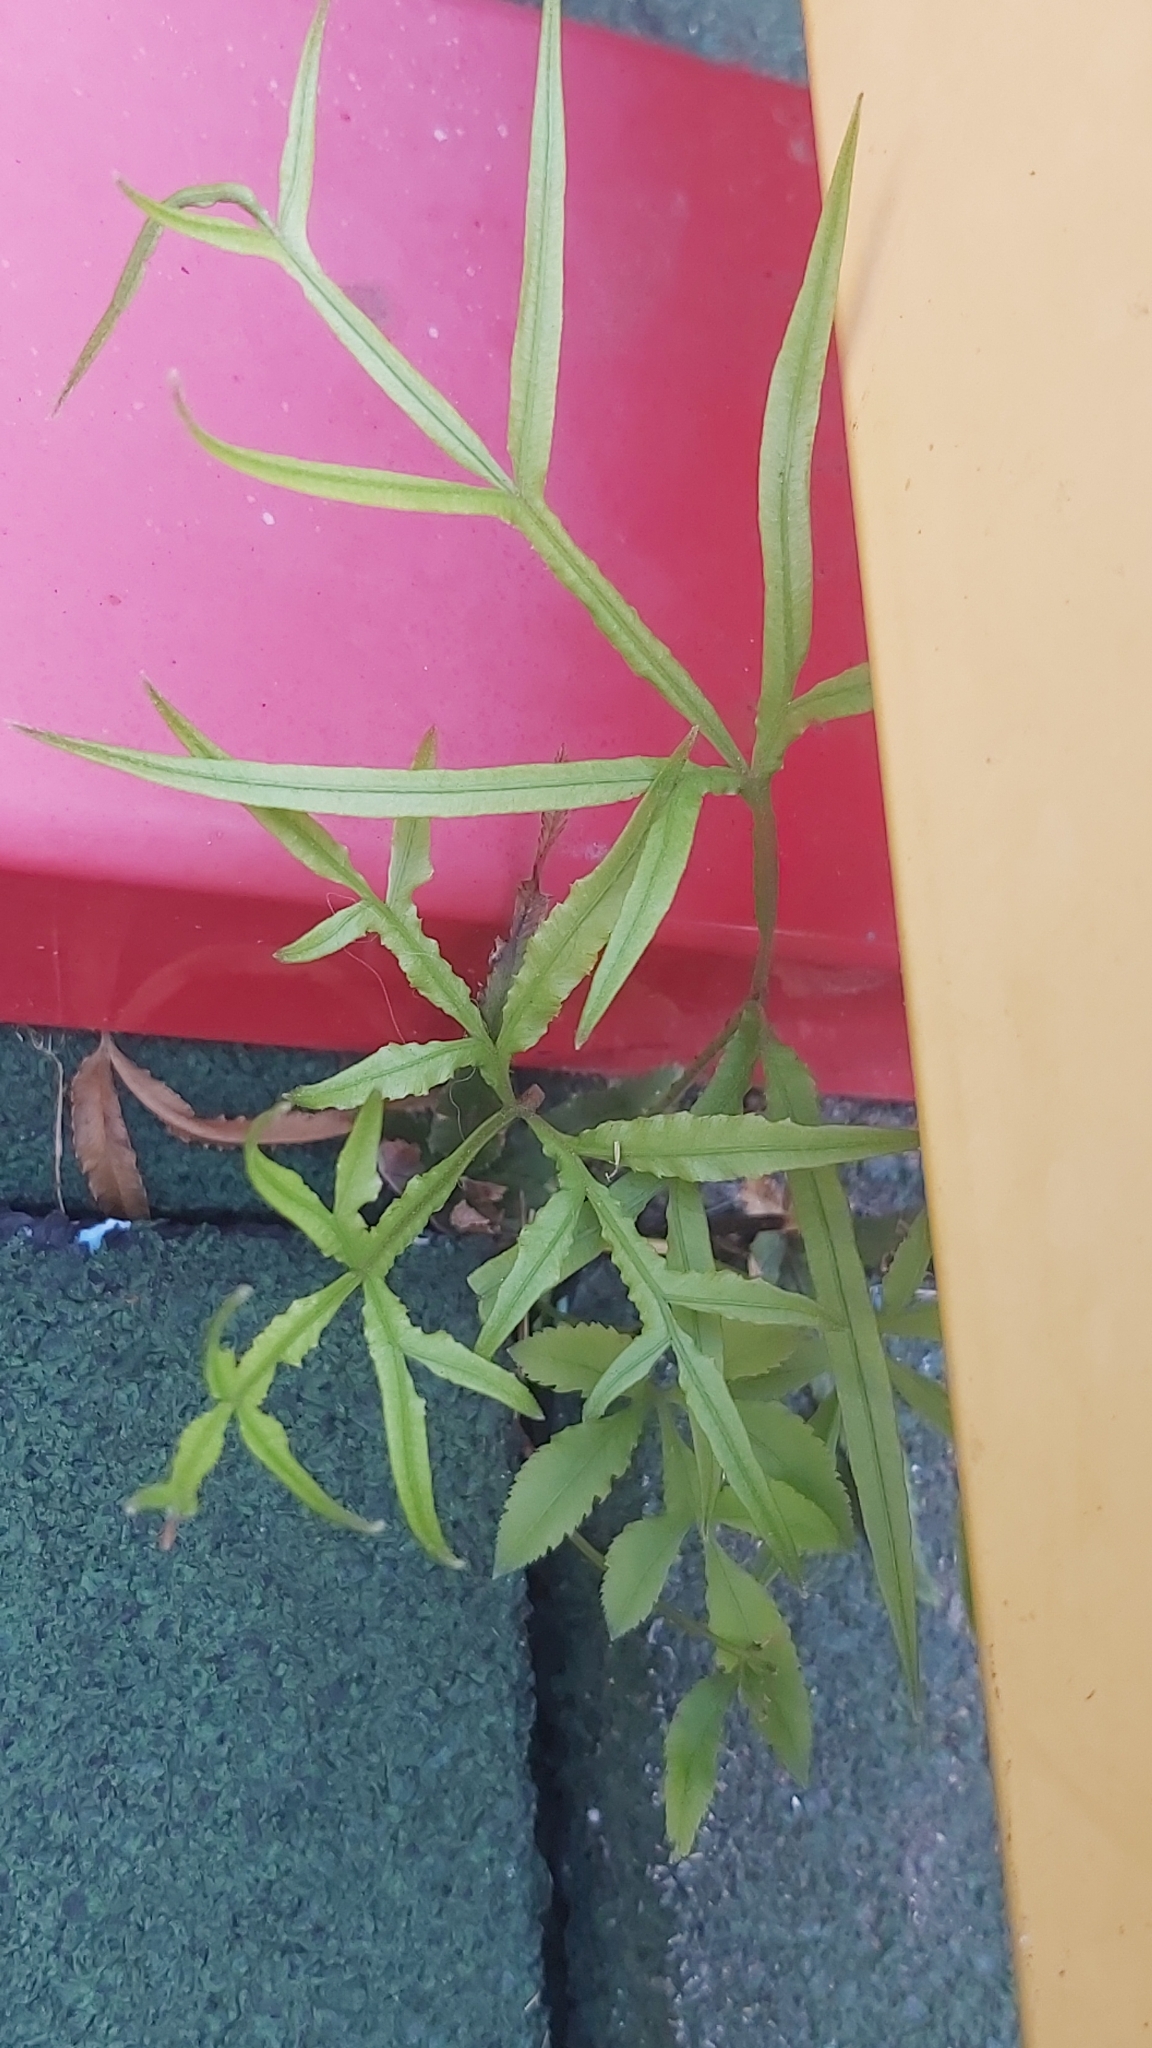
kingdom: Plantae
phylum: Tracheophyta
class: Polypodiopsida
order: Polypodiales
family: Pteridaceae
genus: Pteris
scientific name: Pteris multifida
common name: Spider brake
